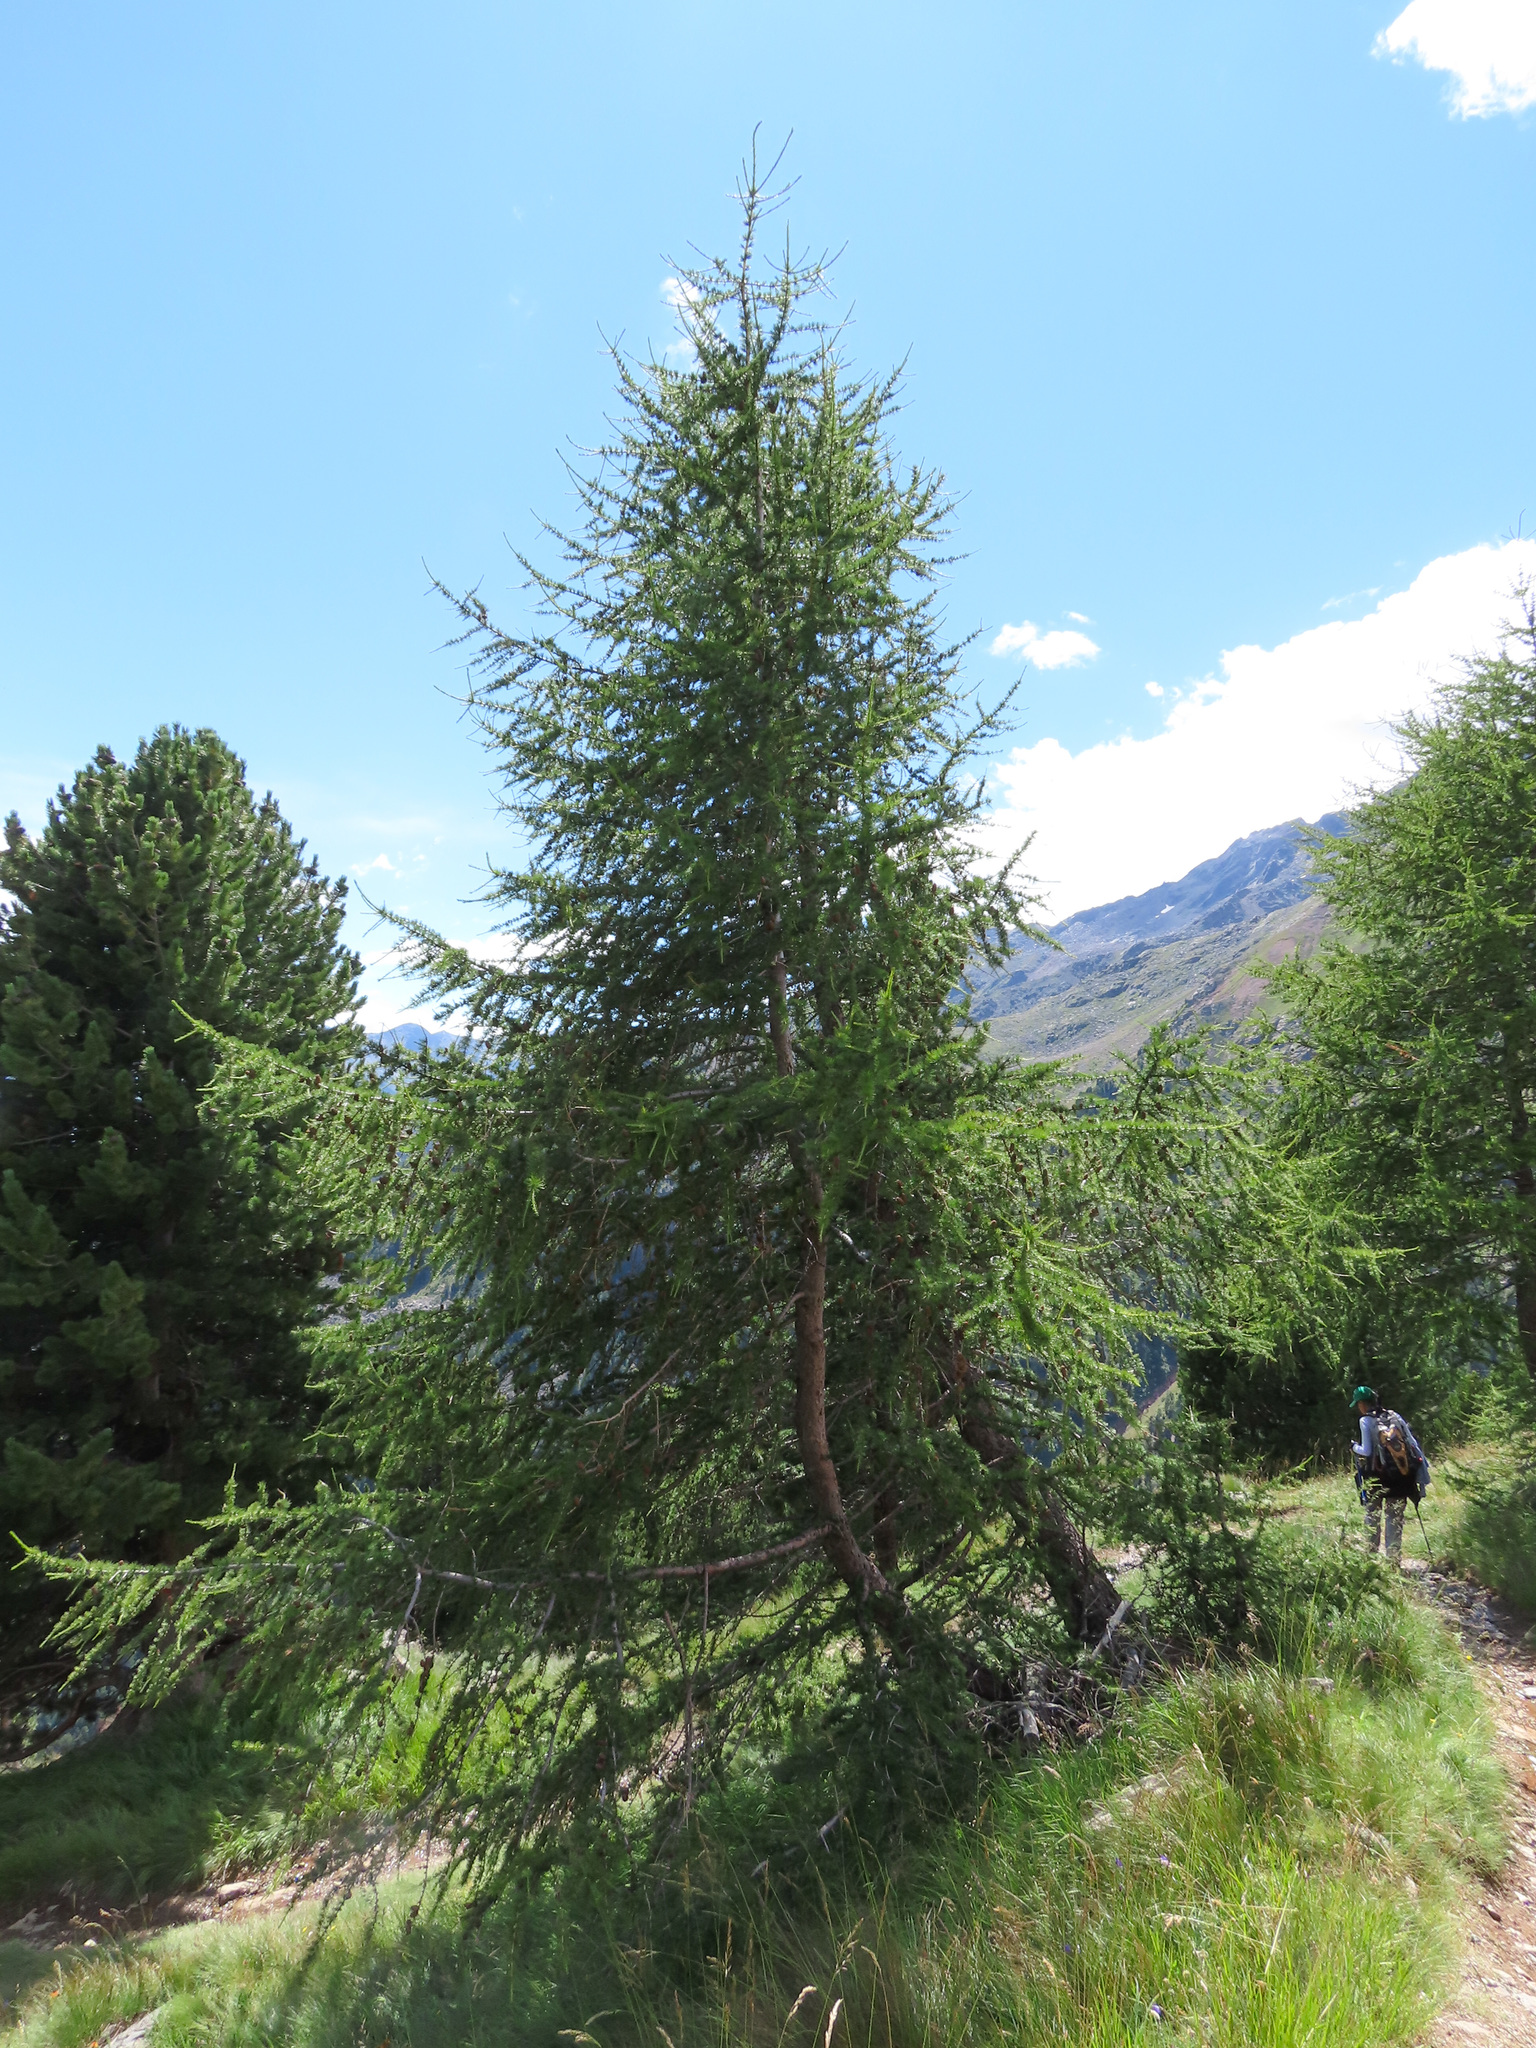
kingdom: Plantae
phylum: Tracheophyta
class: Pinopsida
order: Pinales
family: Pinaceae
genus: Larix
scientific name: Larix decidua
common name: European larch
